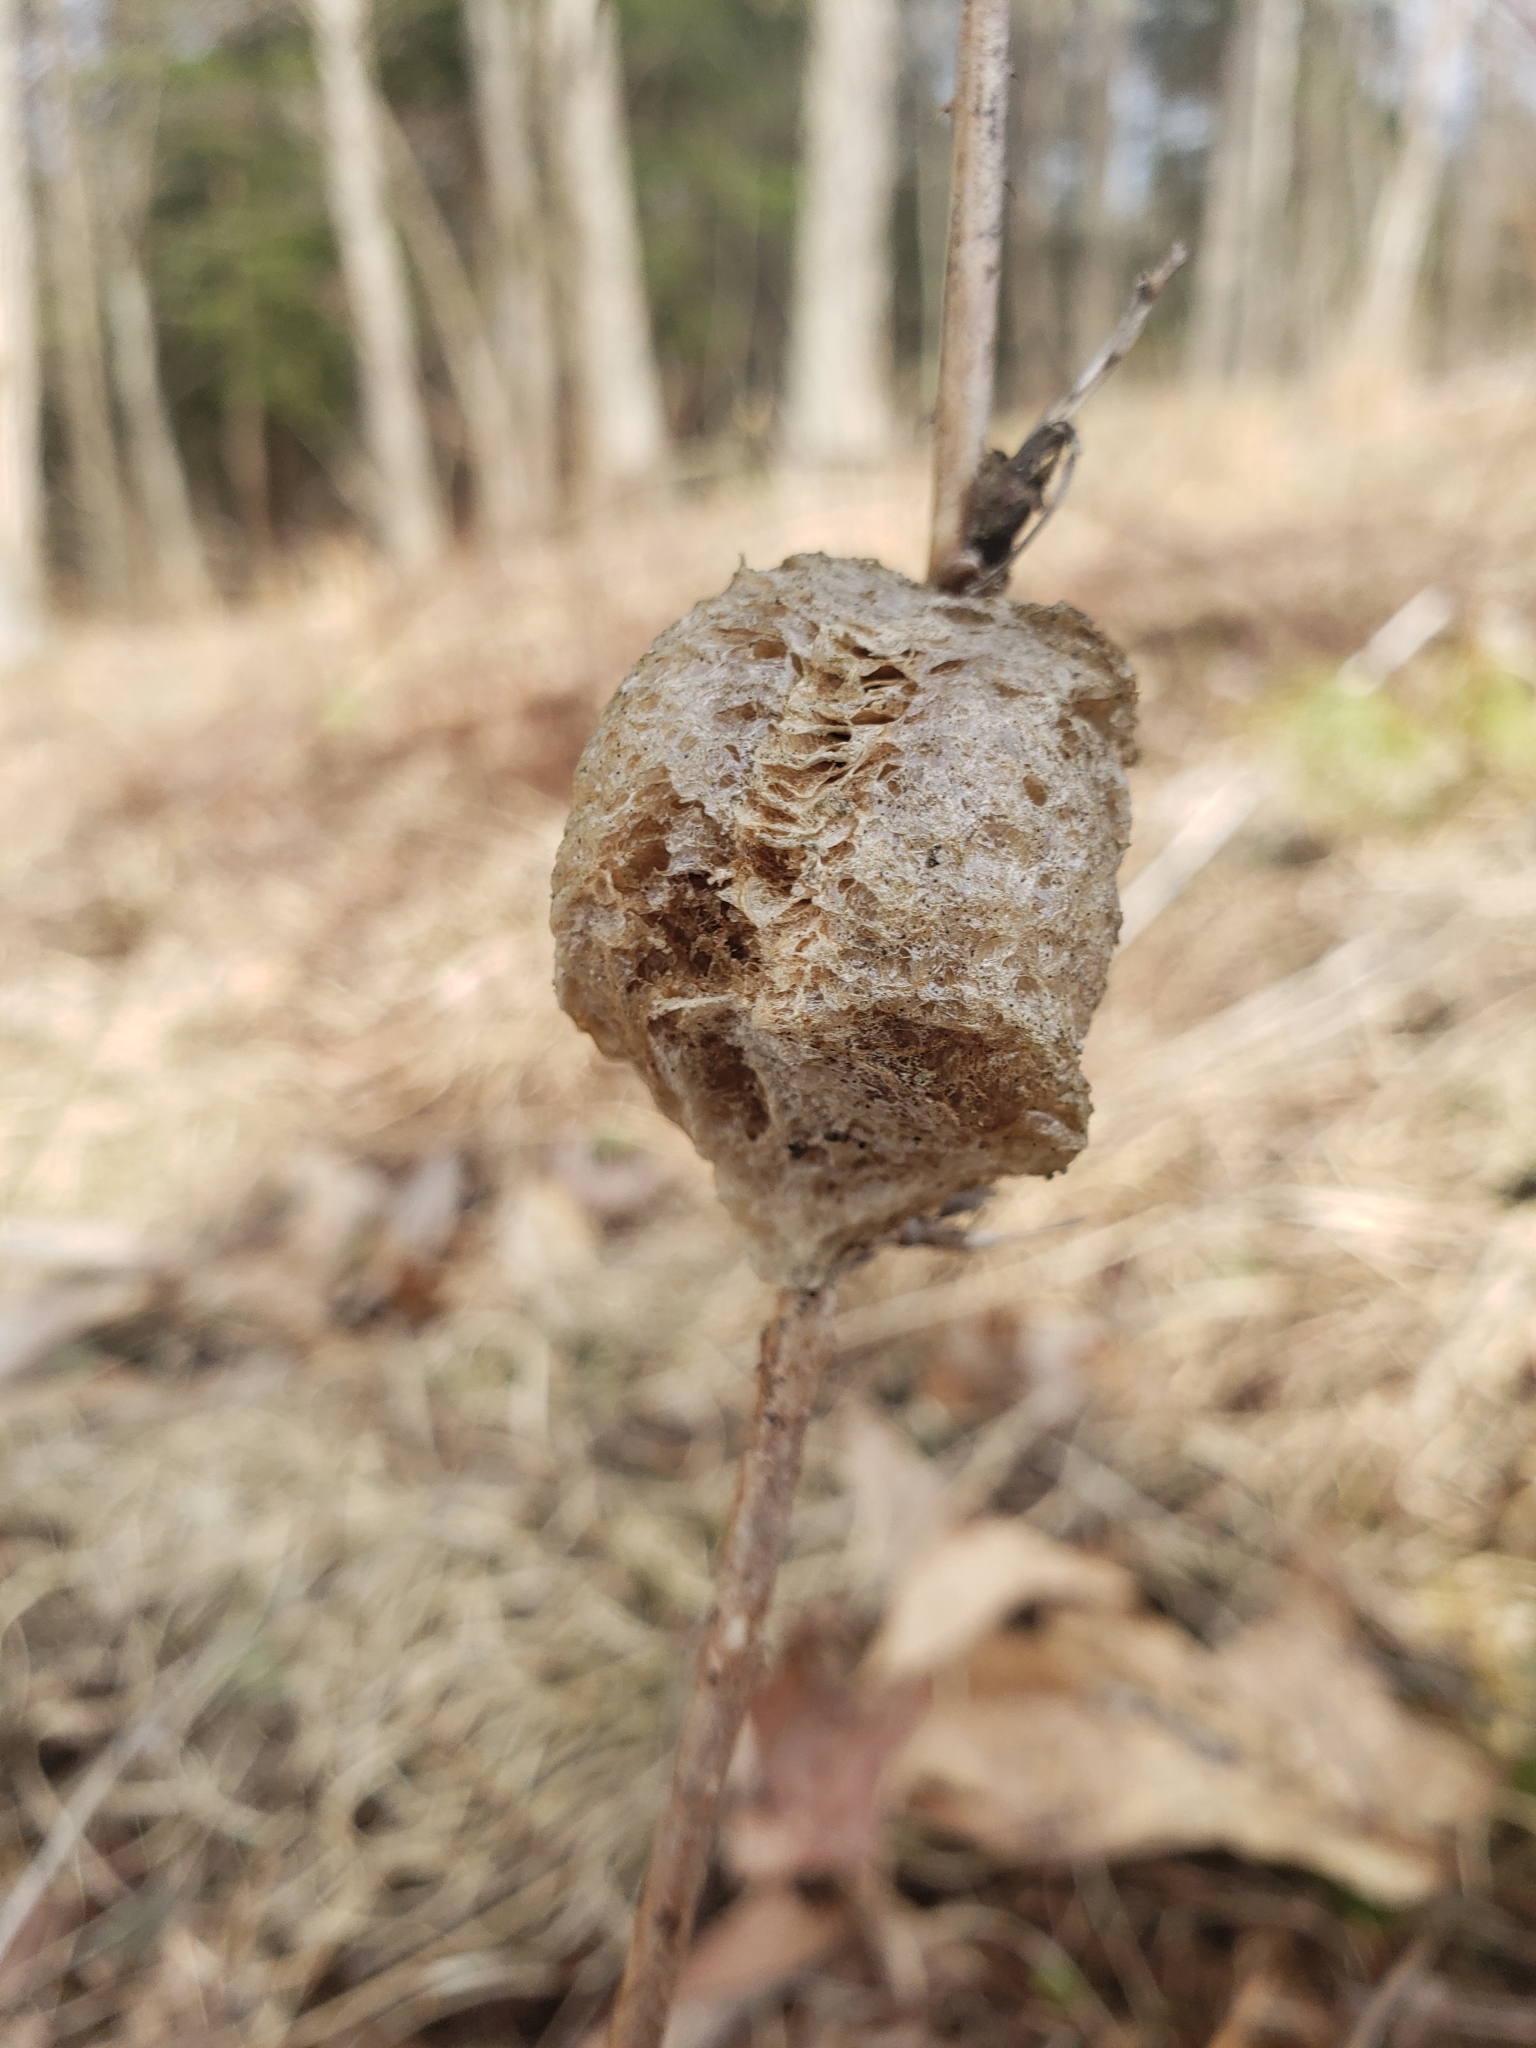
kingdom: Animalia
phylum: Arthropoda
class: Insecta
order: Mantodea
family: Mantidae
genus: Tenodera
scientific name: Tenodera sinensis
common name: Chinese mantis
